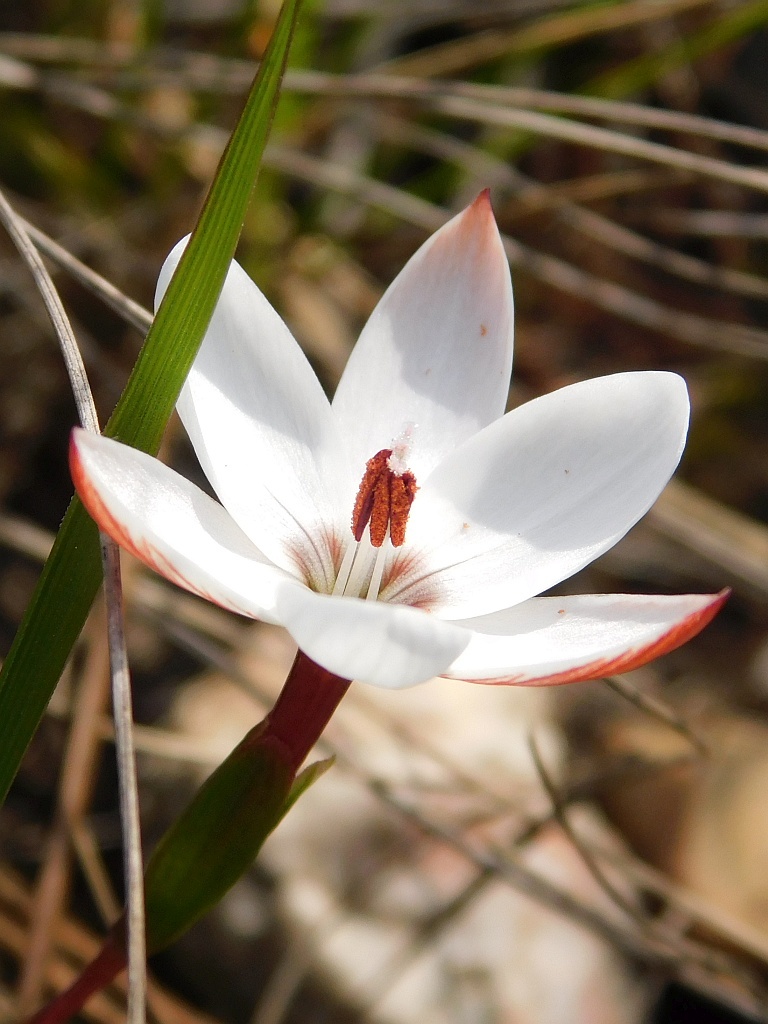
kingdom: Plantae
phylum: Tracheophyta
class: Liliopsida
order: Asparagales
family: Iridaceae
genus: Geissorhiza
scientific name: Geissorhiza ovata
